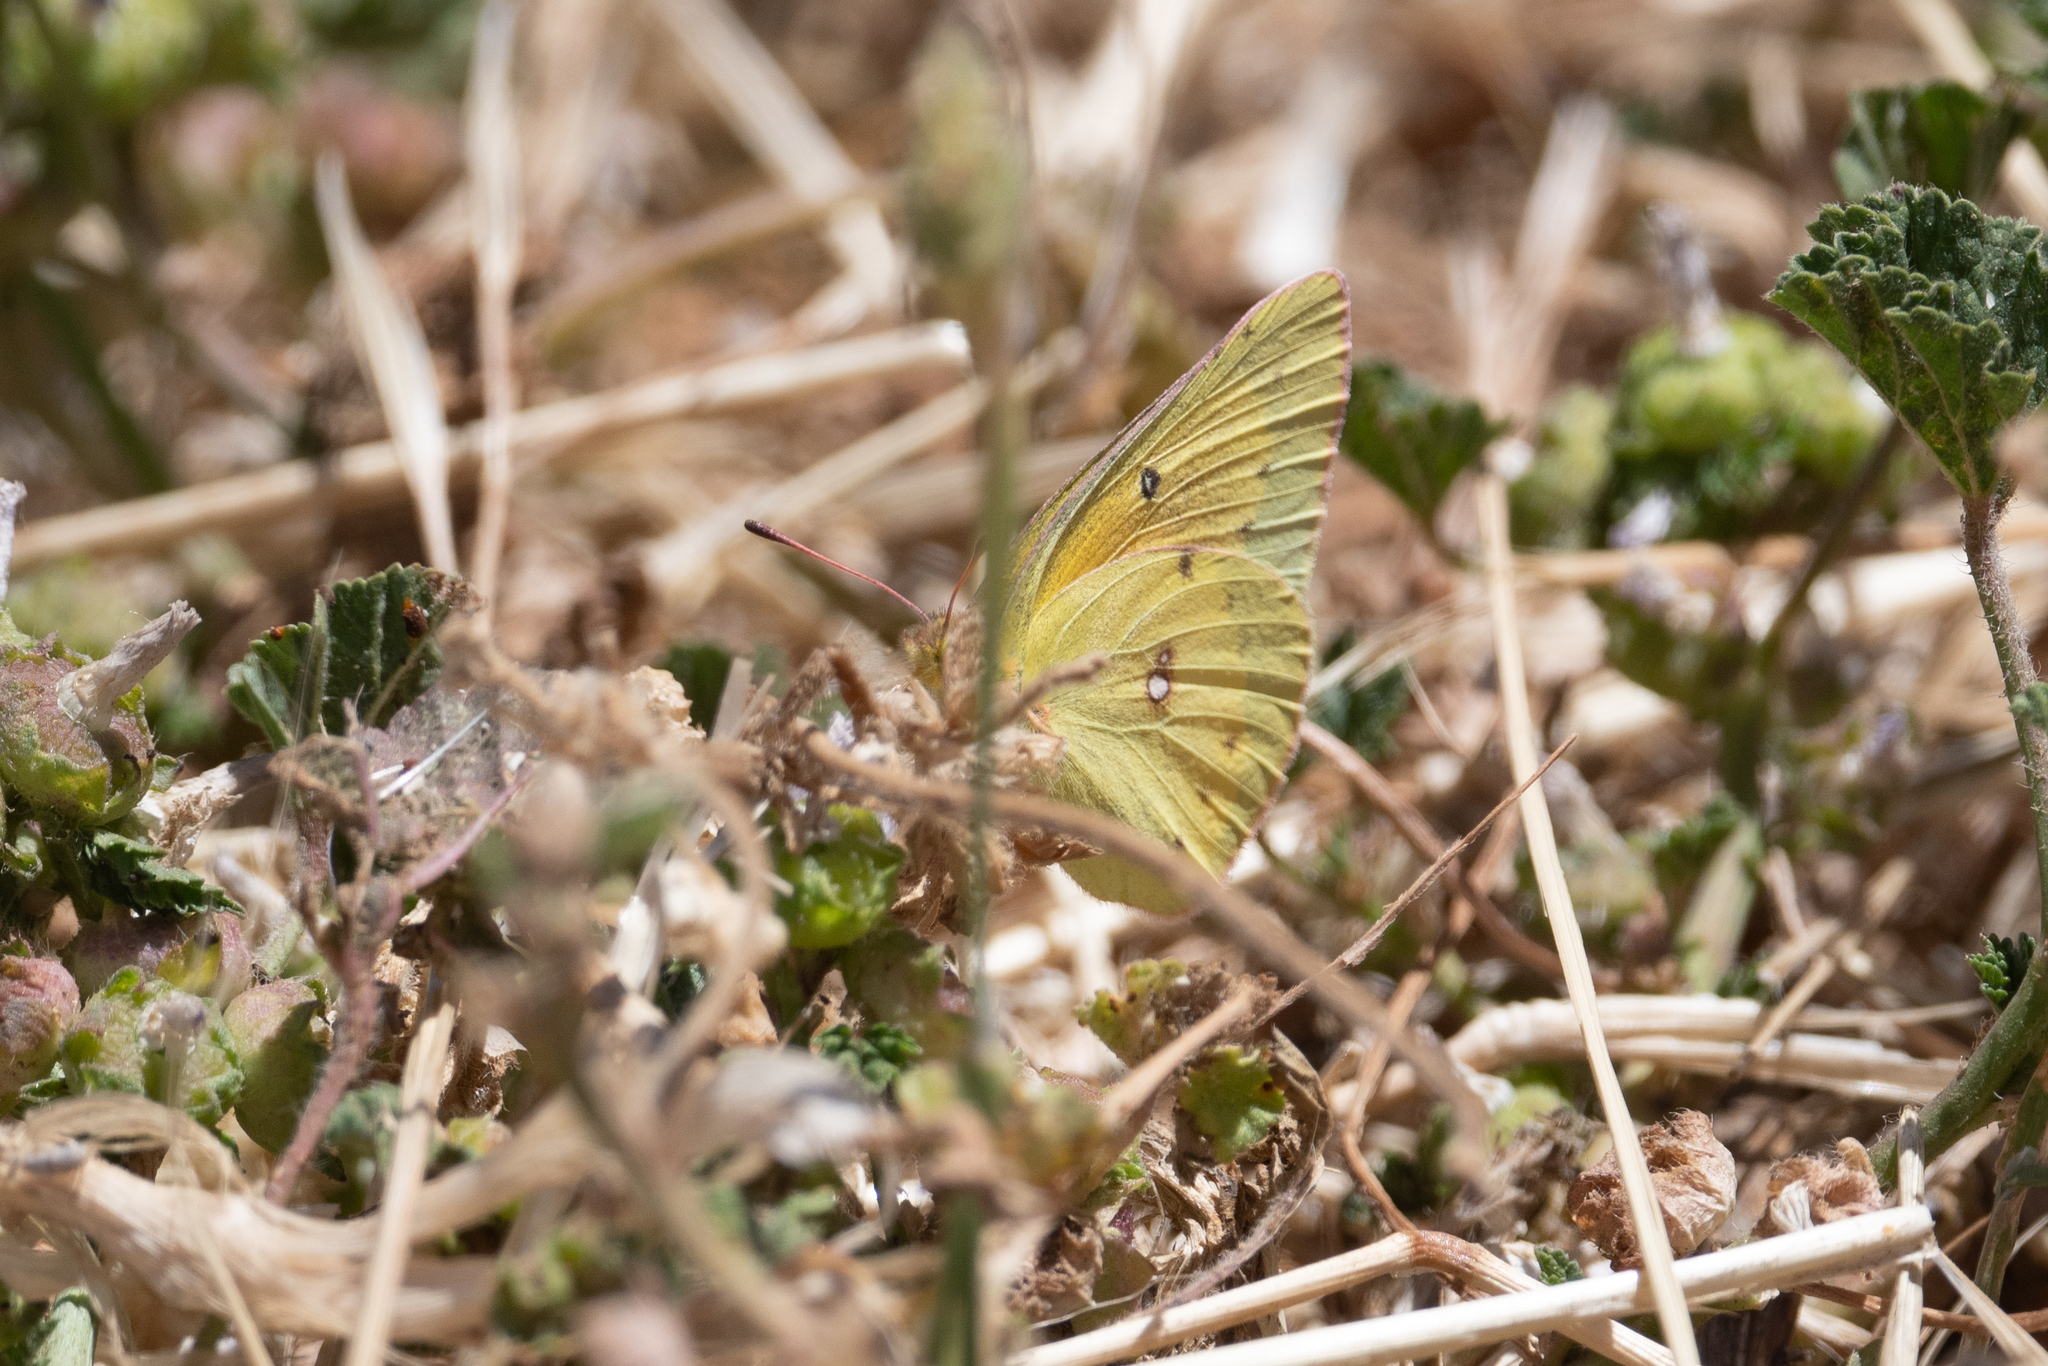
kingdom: Animalia
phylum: Arthropoda
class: Insecta
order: Lepidoptera
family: Pieridae
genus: Colias
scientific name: Colias eurytheme
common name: Alfalfa butterfly
